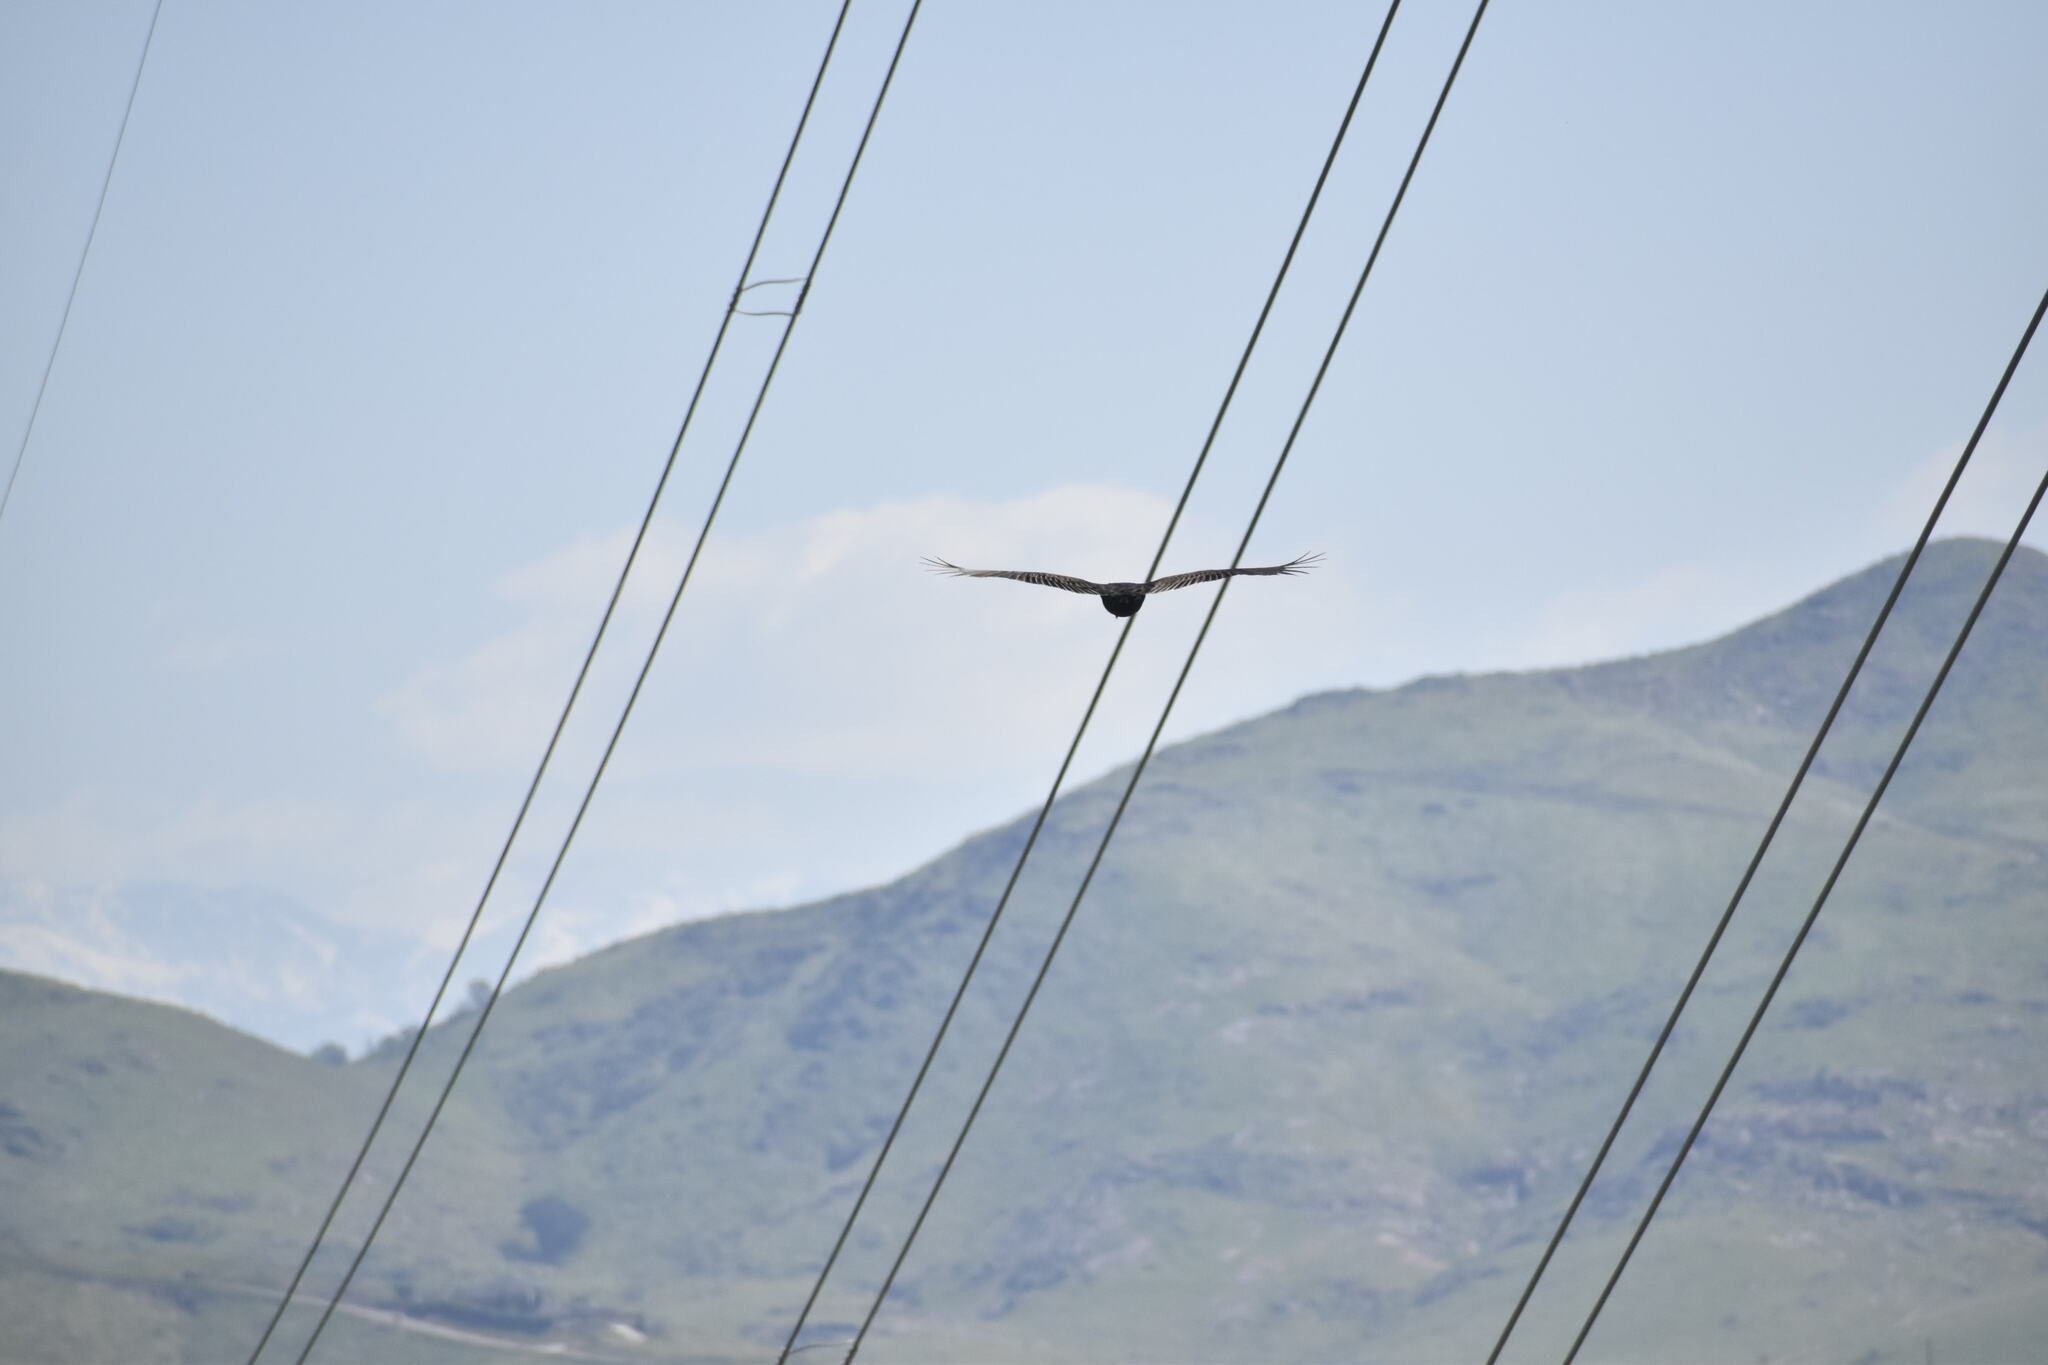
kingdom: Animalia
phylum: Chordata
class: Aves
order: Accipitriformes
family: Cathartidae
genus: Cathartes
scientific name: Cathartes aura
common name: Turkey vulture
